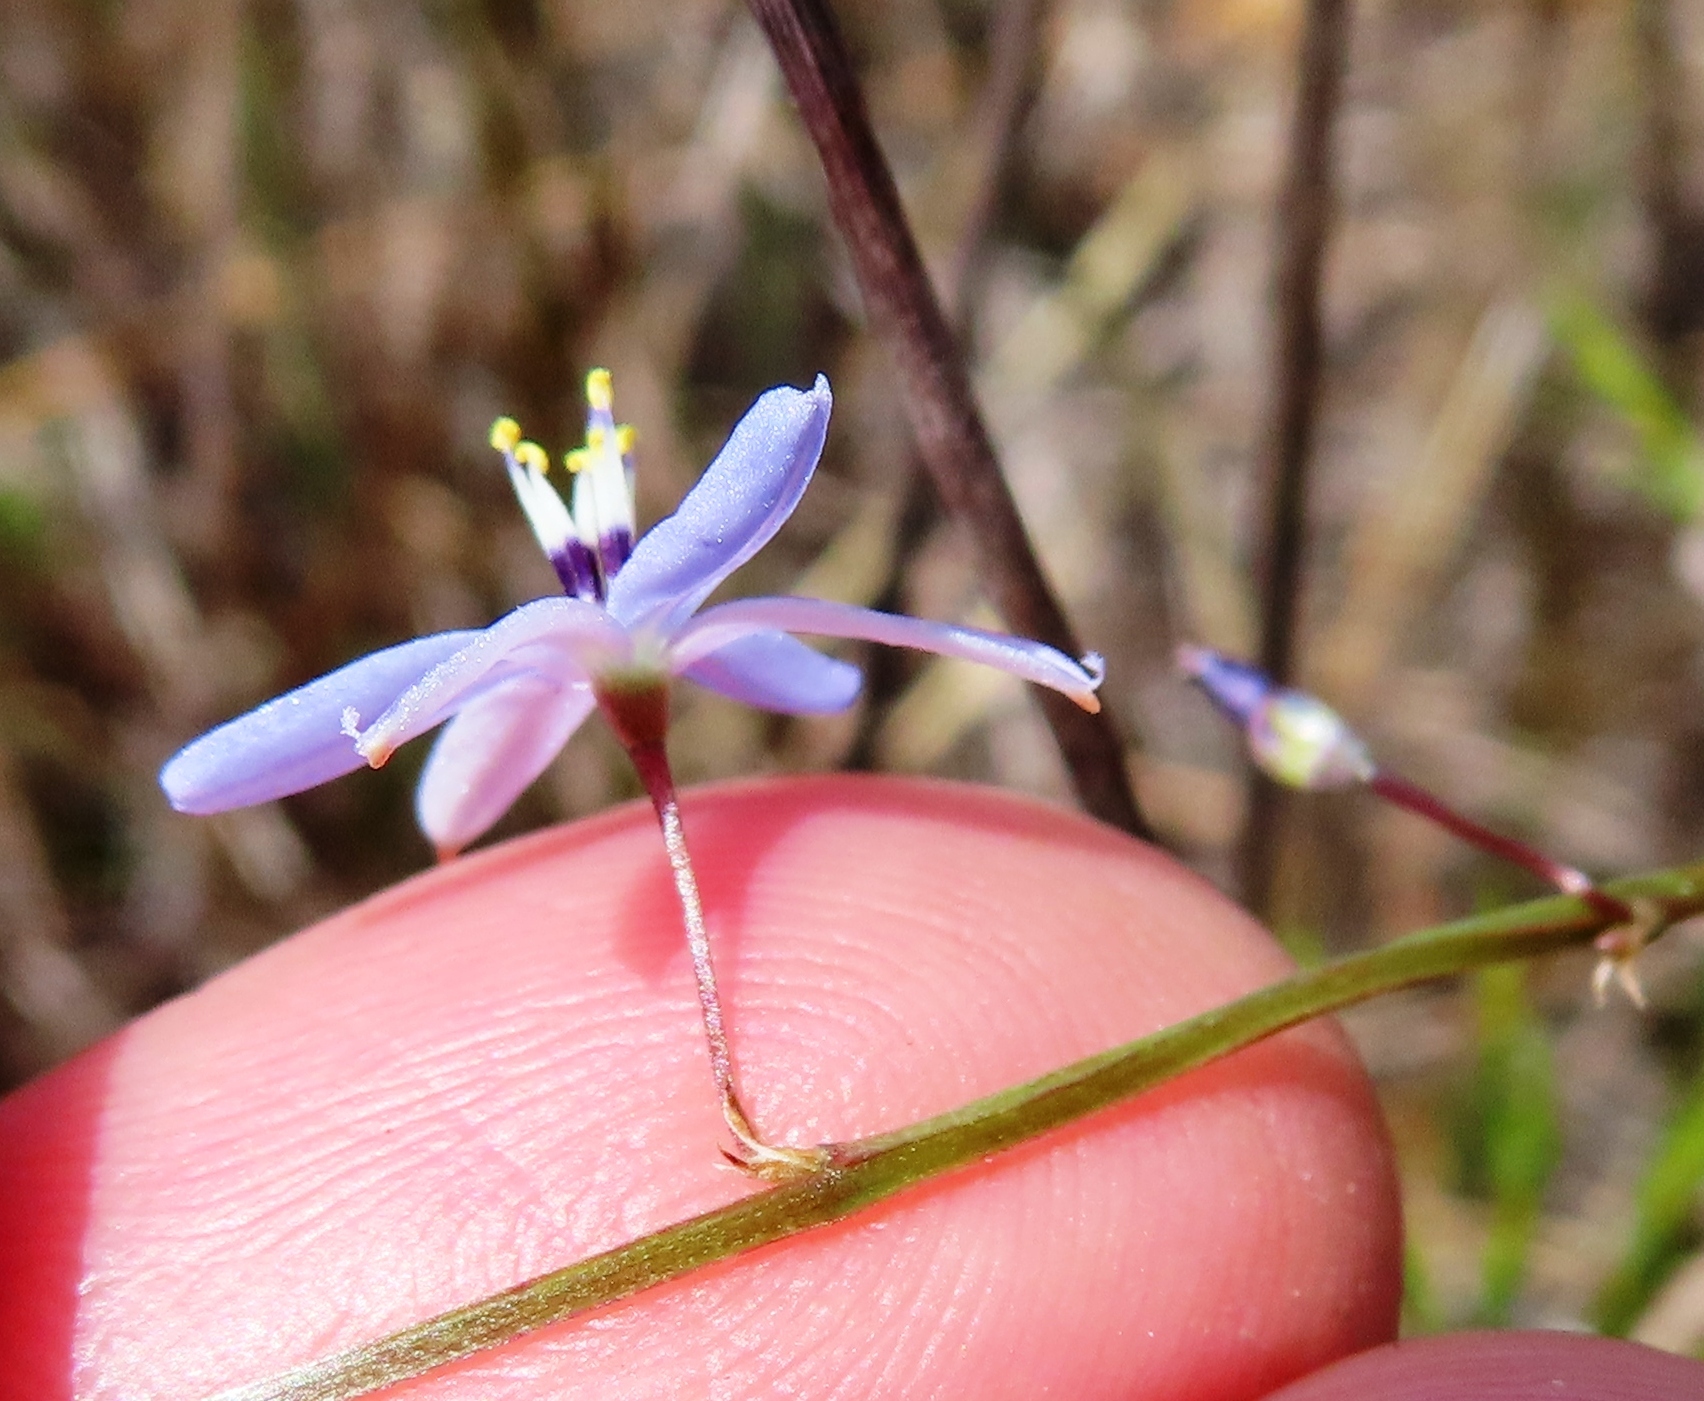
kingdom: Plantae
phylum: Tracheophyta
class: Liliopsida
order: Asparagales
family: Asphodelaceae
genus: Caesia
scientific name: Caesia contorta
